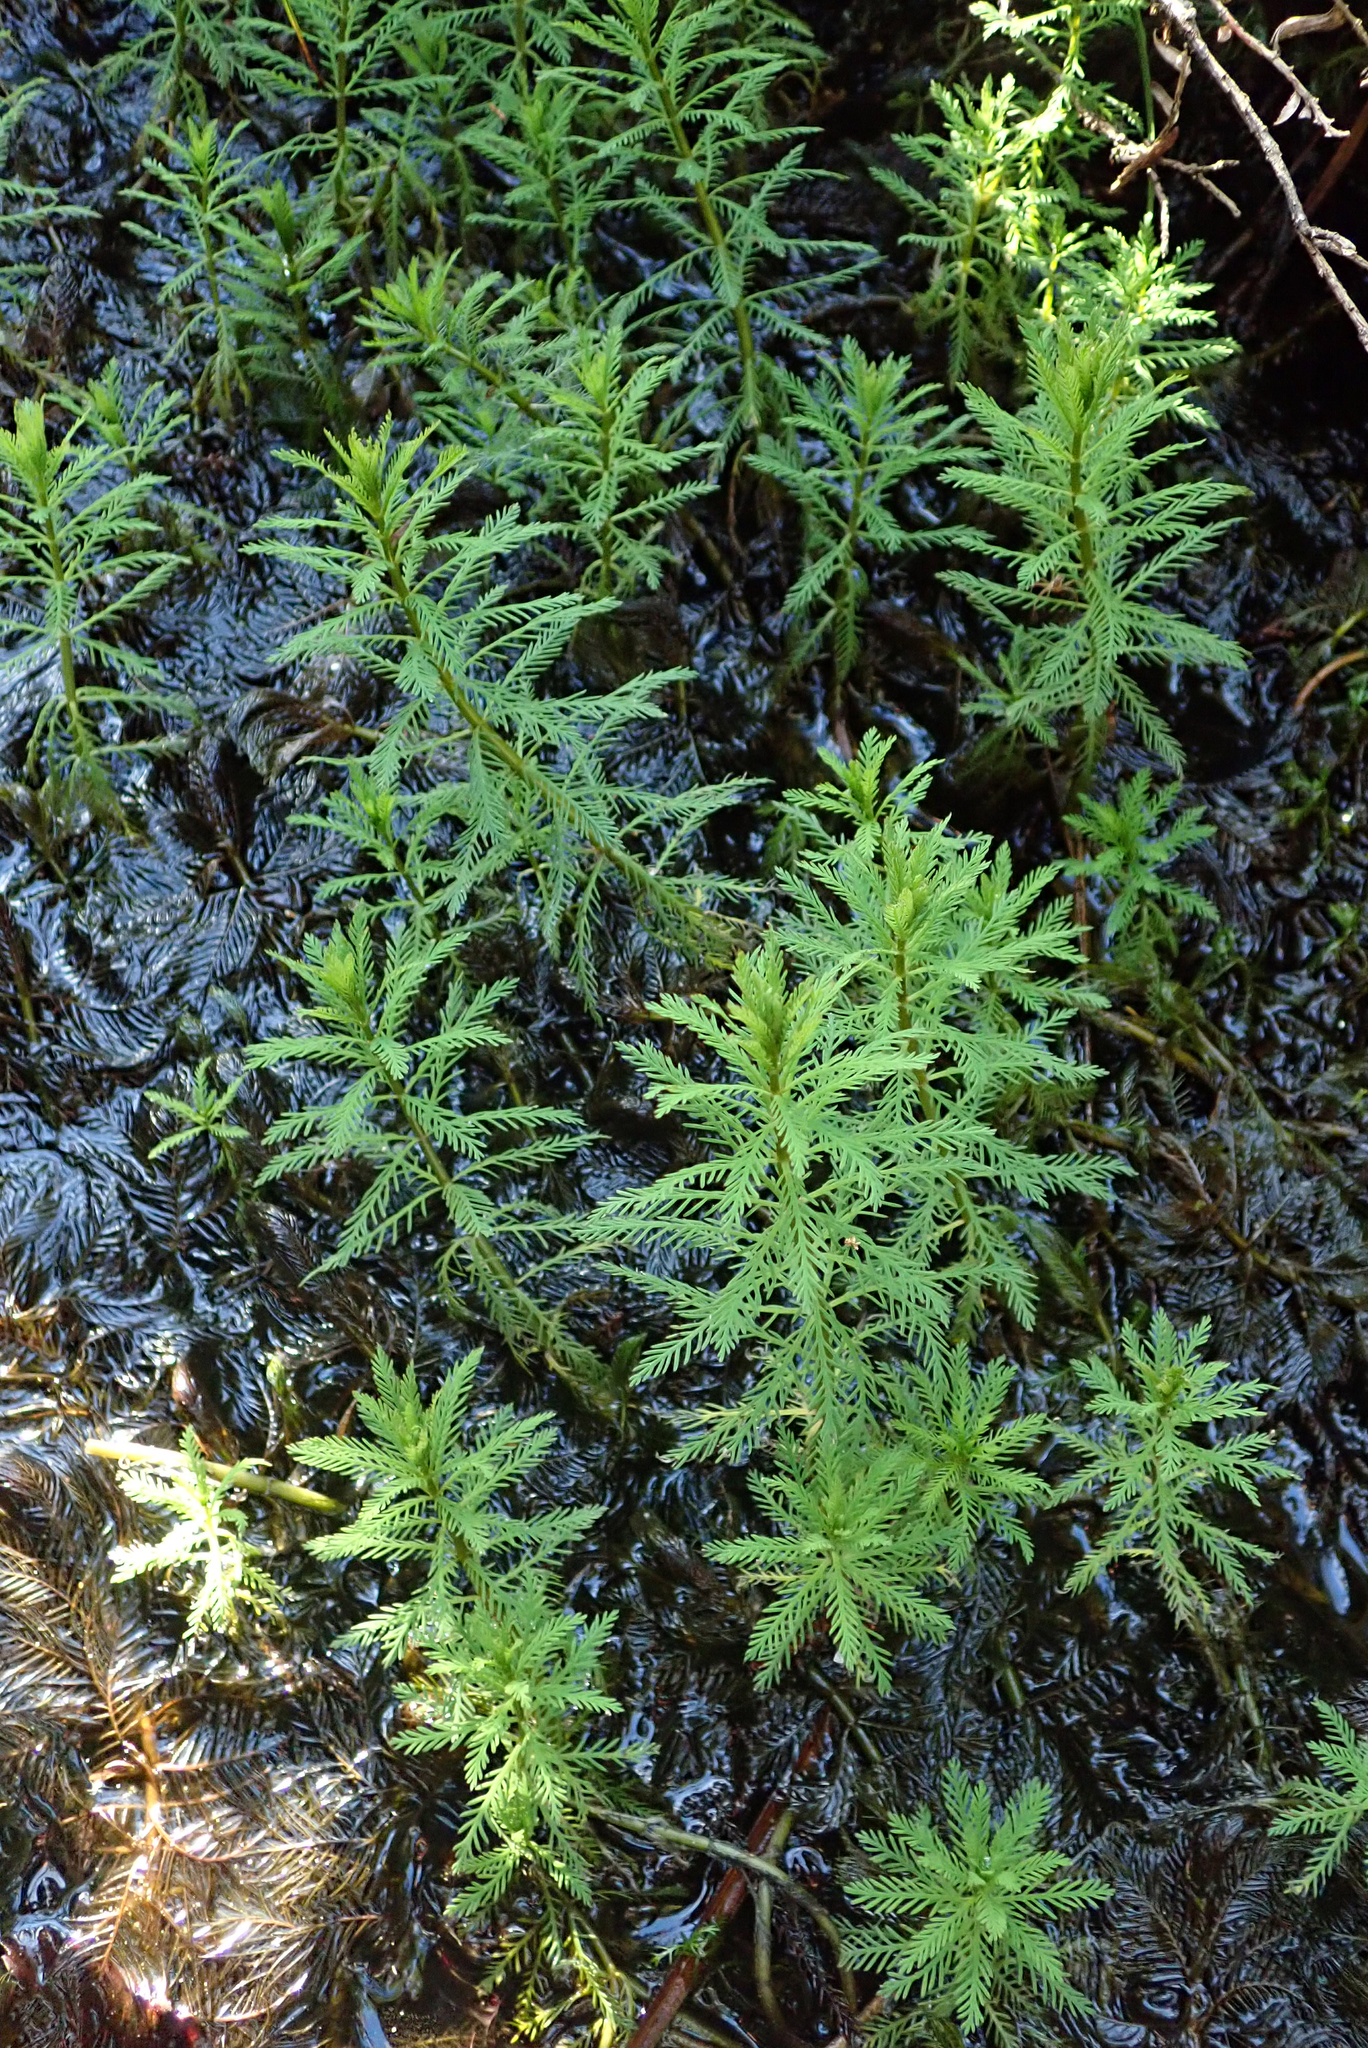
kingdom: Plantae
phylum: Tracheophyta
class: Magnoliopsida
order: Saxifragales
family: Haloragaceae
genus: Myriophyllum
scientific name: Myriophyllum robustum
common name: Stout water milfoil
